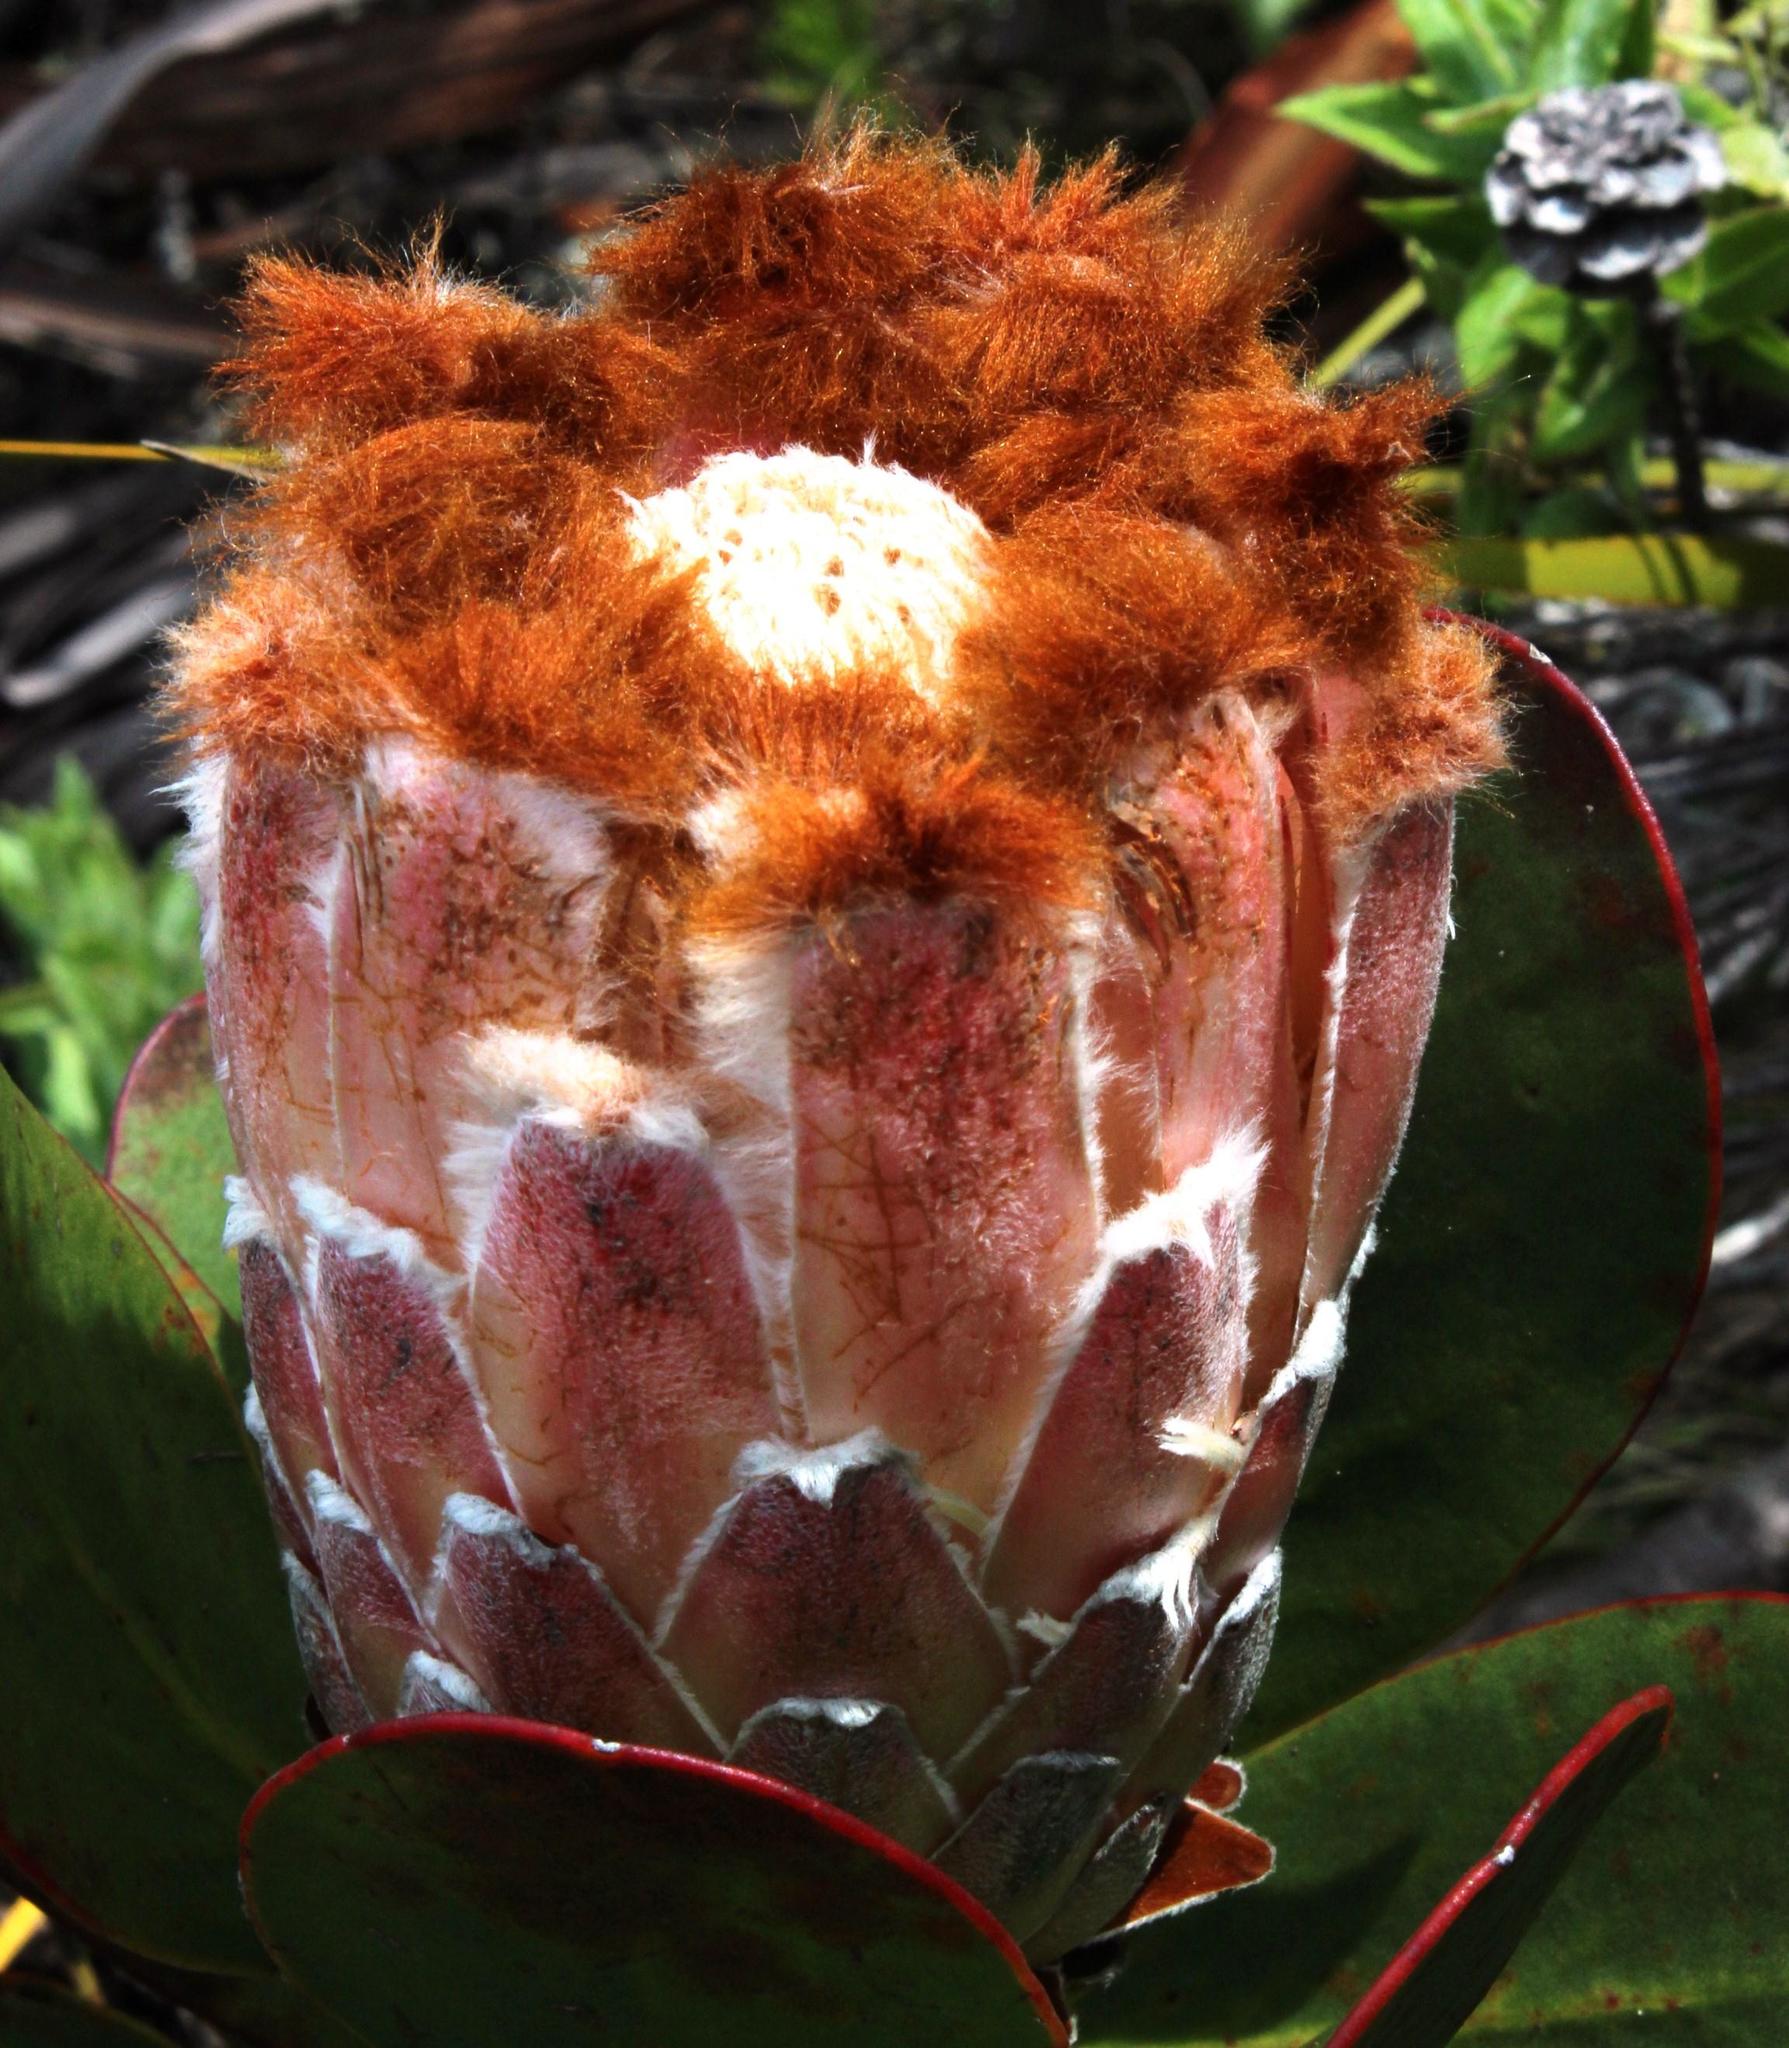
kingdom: Plantae
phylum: Tracheophyta
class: Magnoliopsida
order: Proteales
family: Proteaceae
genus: Protea
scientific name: Protea speciosa
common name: Brown-beard sugarbush
